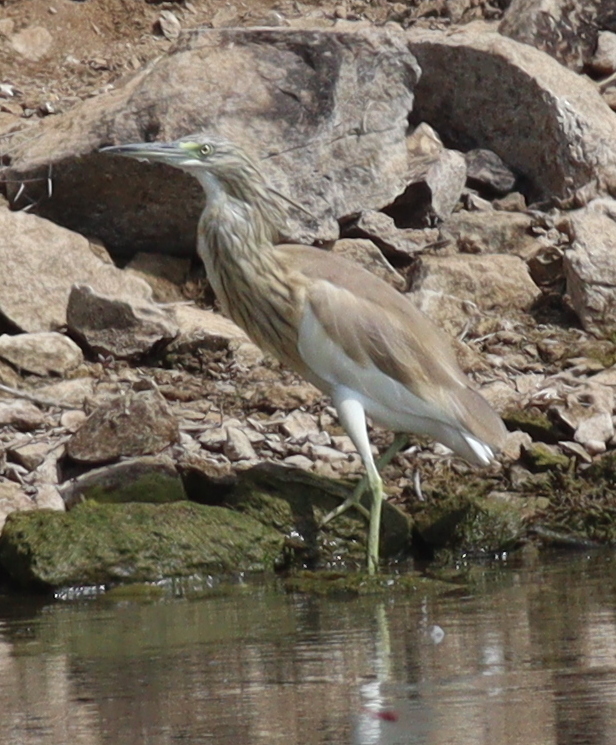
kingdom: Animalia
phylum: Chordata
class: Aves
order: Pelecaniformes
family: Ardeidae
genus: Ardeola
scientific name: Ardeola ralloides
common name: Squacco heron
